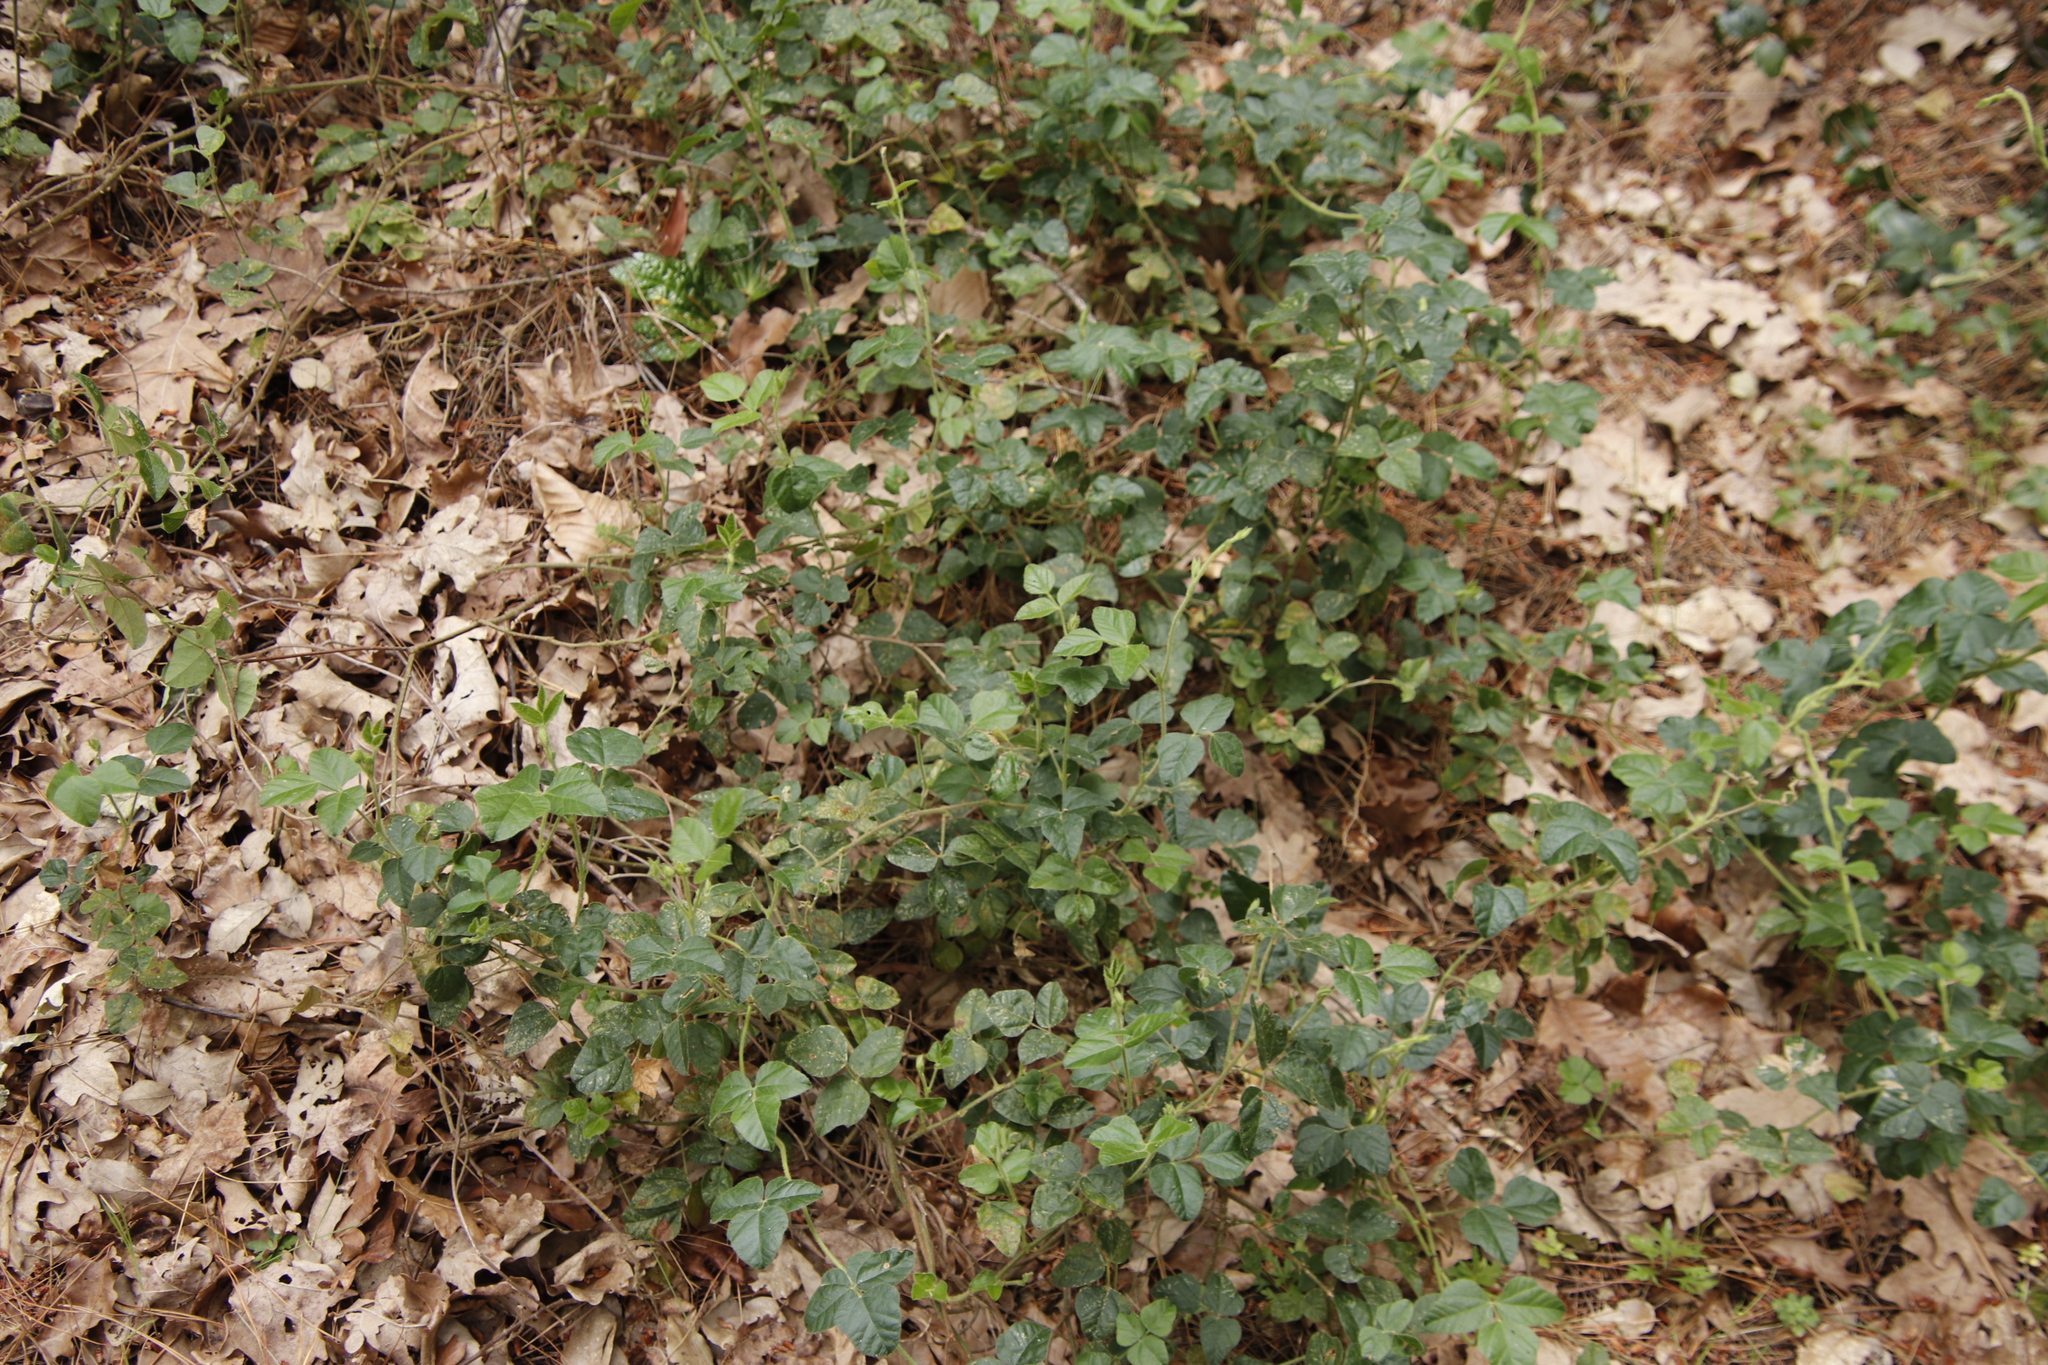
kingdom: Plantae
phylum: Tracheophyta
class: Magnoliopsida
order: Fabales
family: Fabaceae
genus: Bolusafra
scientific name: Bolusafra bituminosa
